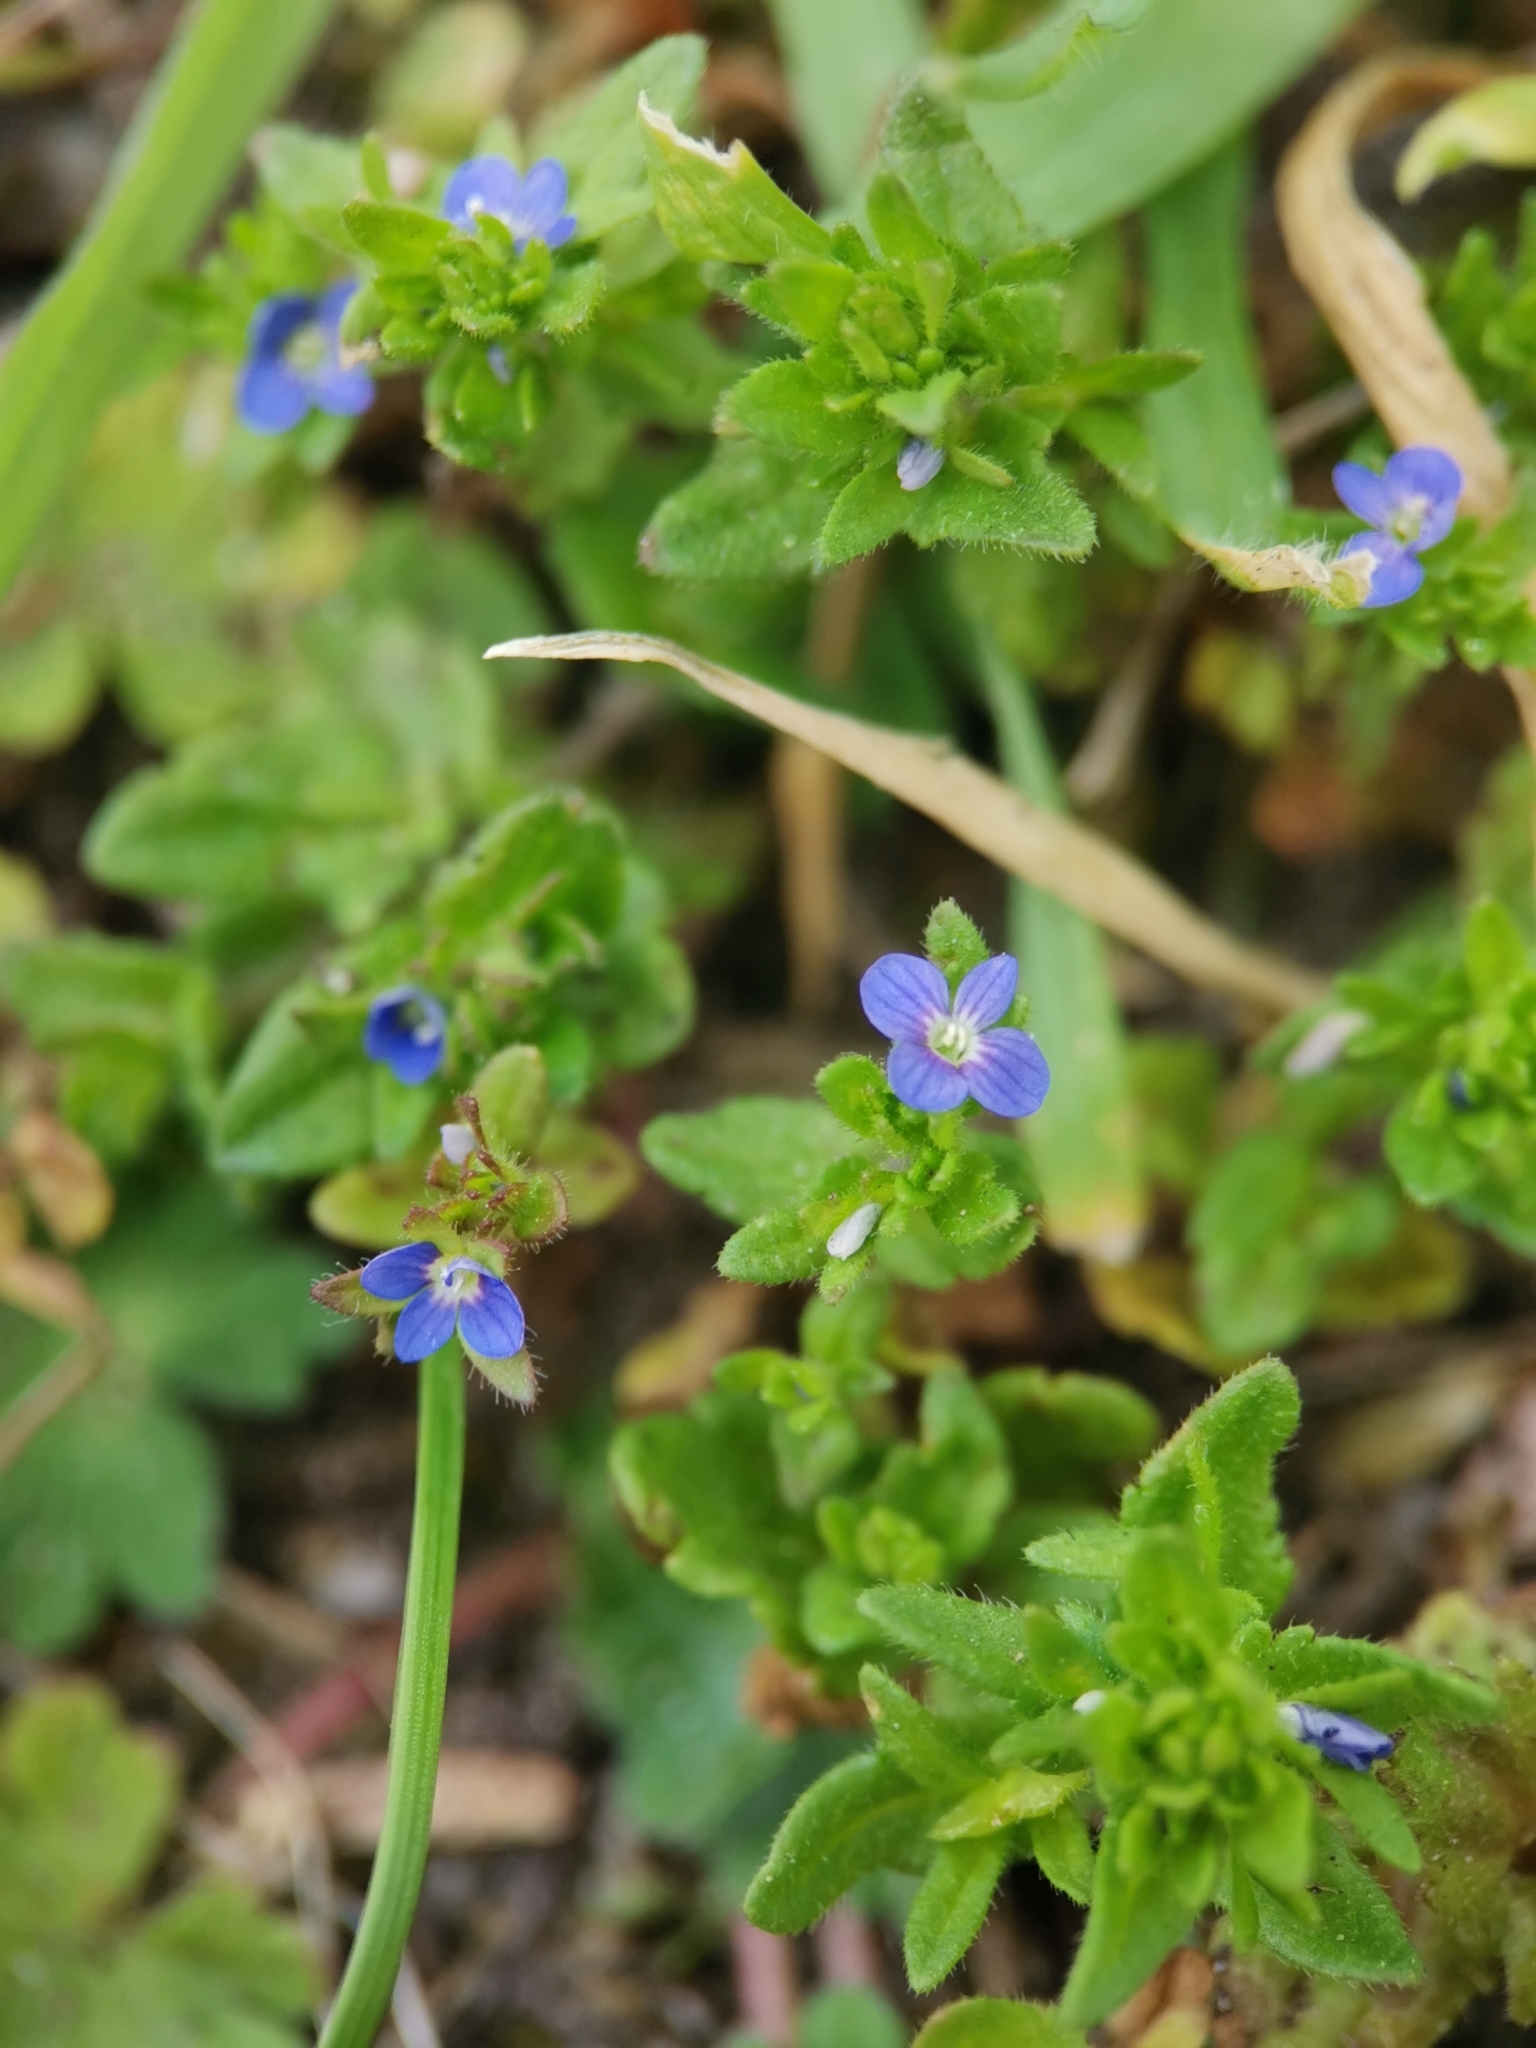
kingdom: Plantae
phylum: Tracheophyta
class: Magnoliopsida
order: Lamiales
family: Plantaginaceae
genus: Veronica
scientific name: Veronica arvensis
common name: Corn speedwell
